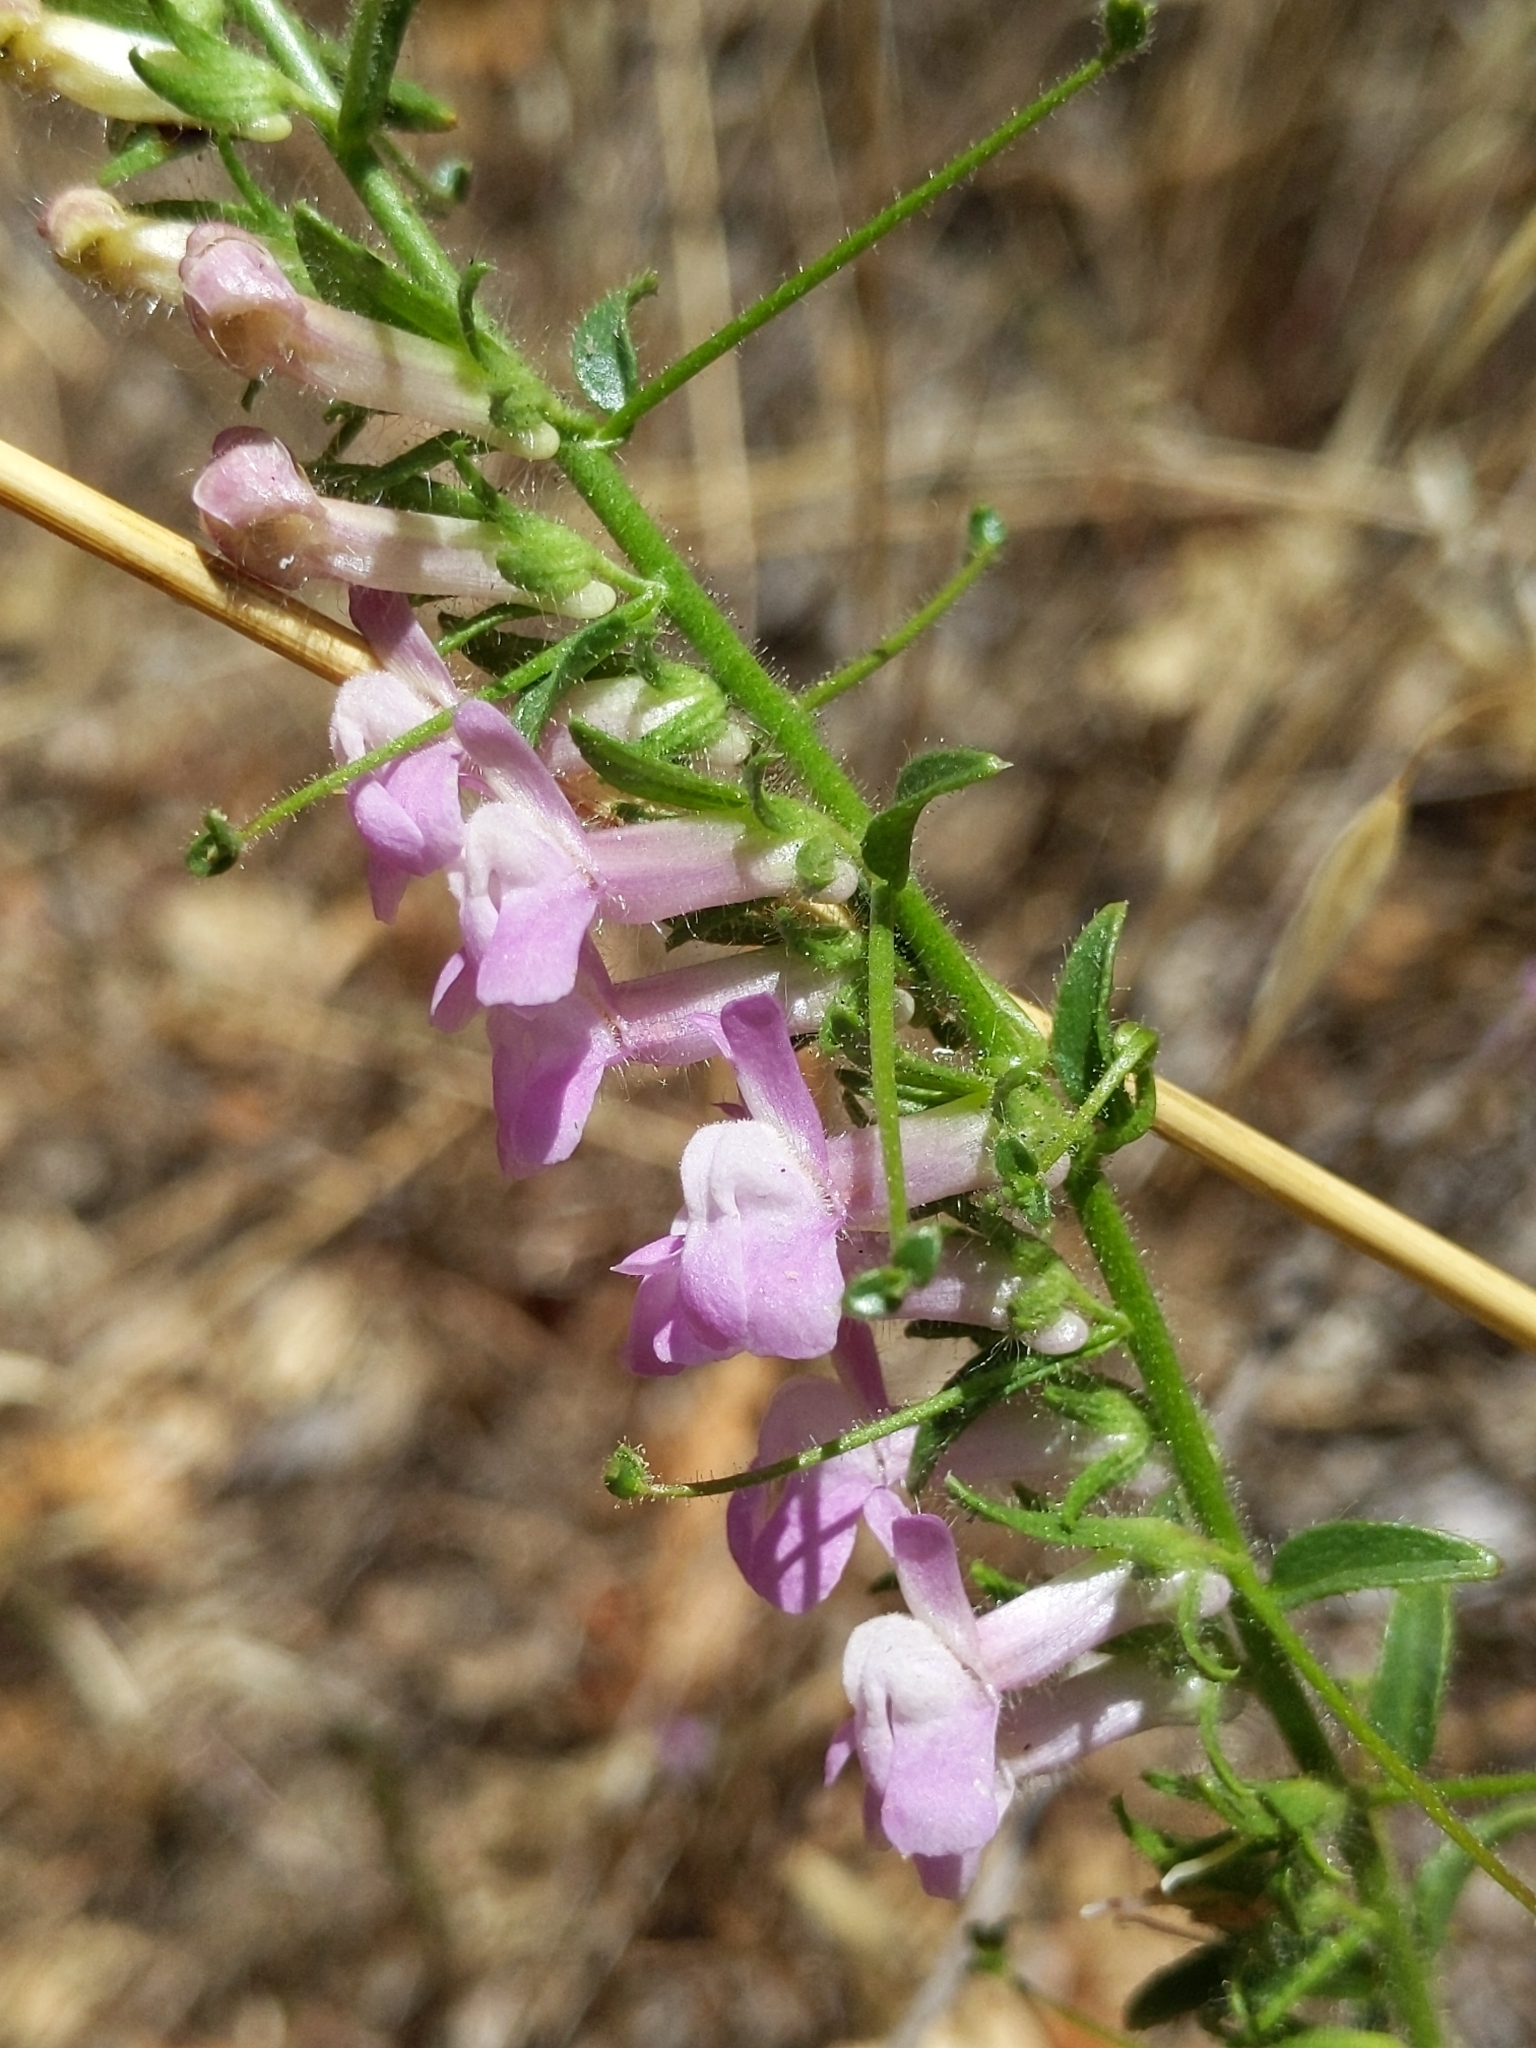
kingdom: Plantae
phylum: Tracheophyta
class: Magnoliopsida
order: Lamiales
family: Plantaginaceae
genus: Sairocarpus
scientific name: Sairocarpus vexillocalyculatus
